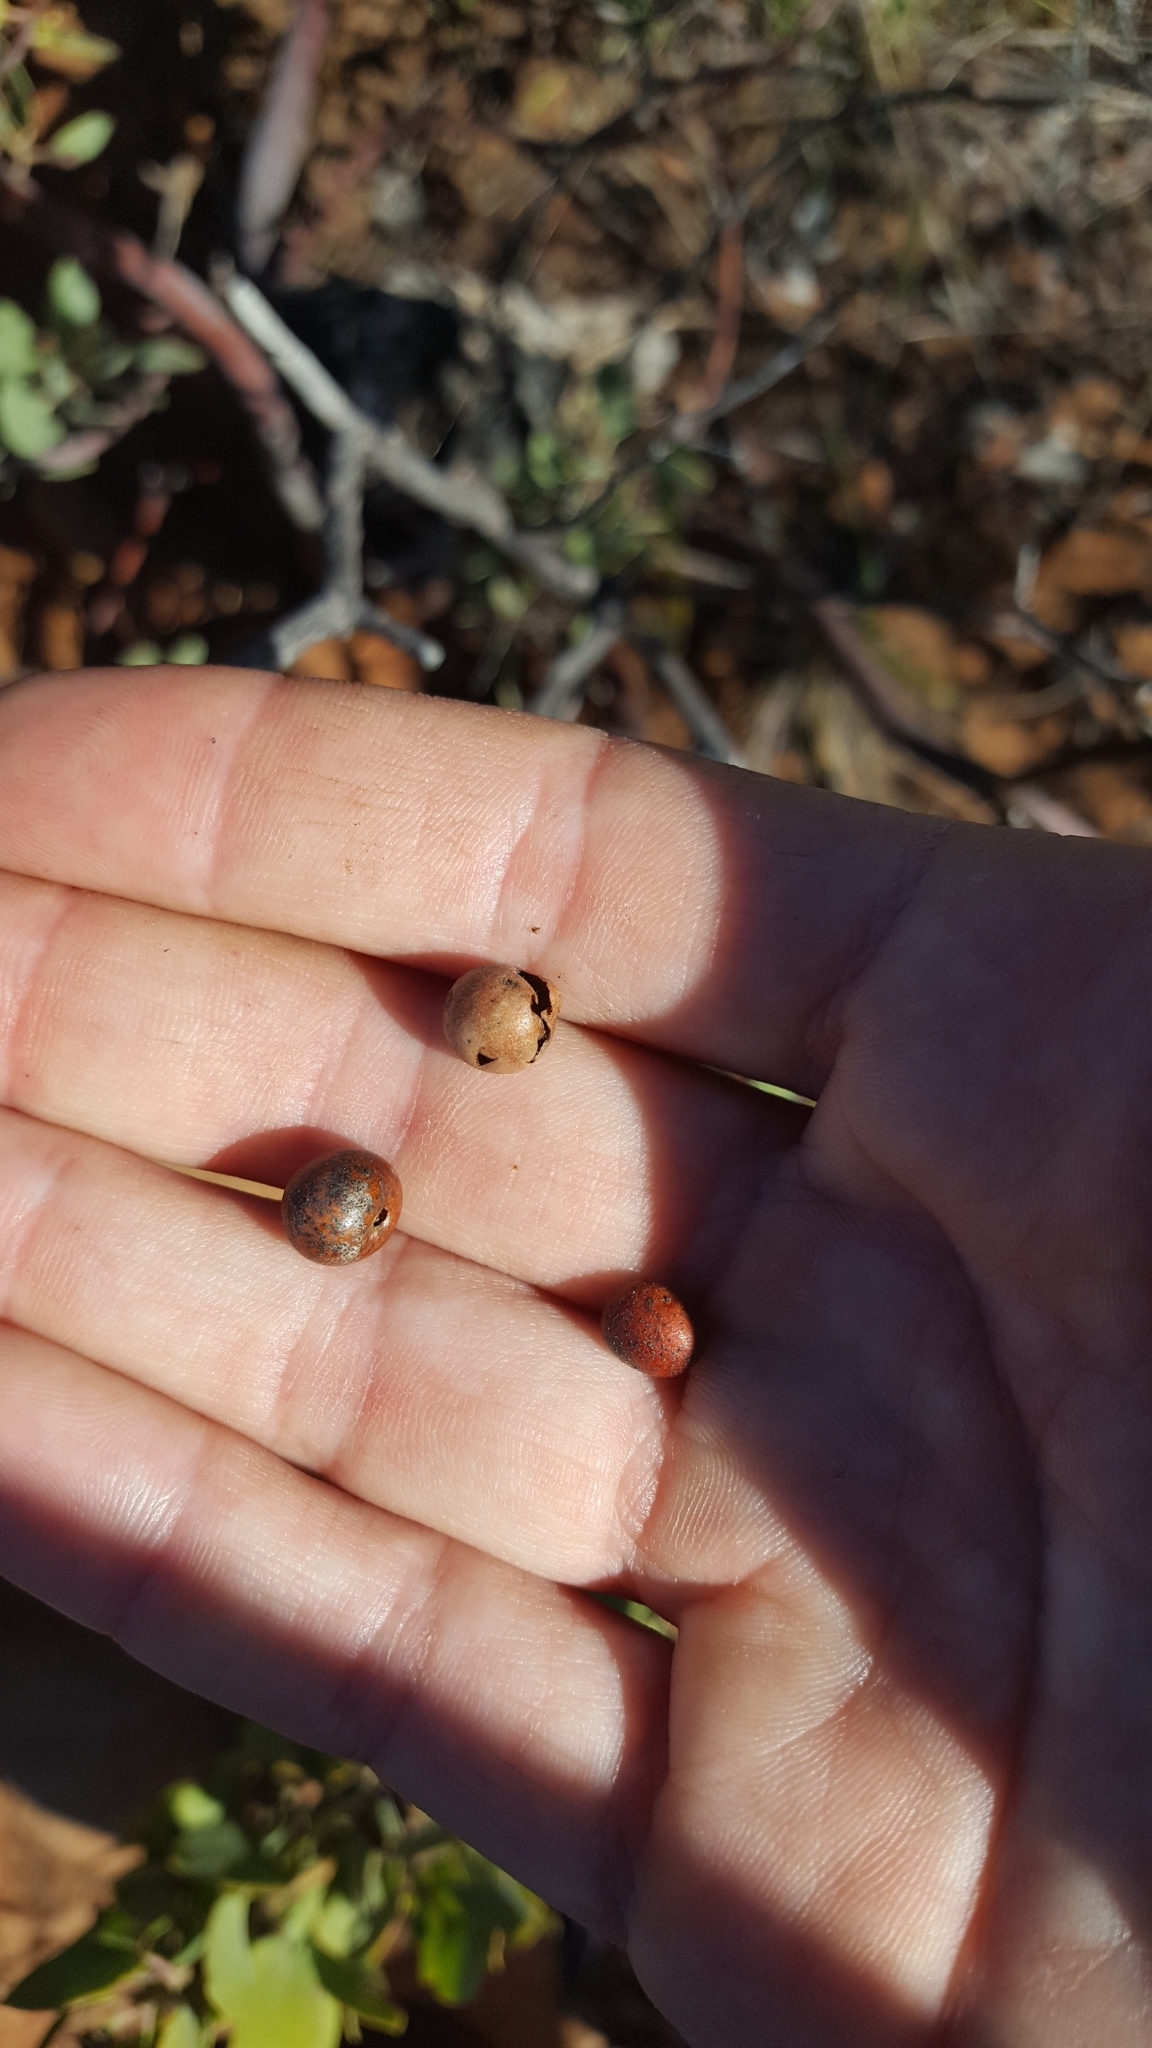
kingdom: Plantae
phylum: Tracheophyta
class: Magnoliopsida
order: Ericales
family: Ericaceae
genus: Arctostaphylos
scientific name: Arctostaphylos glandulosa
